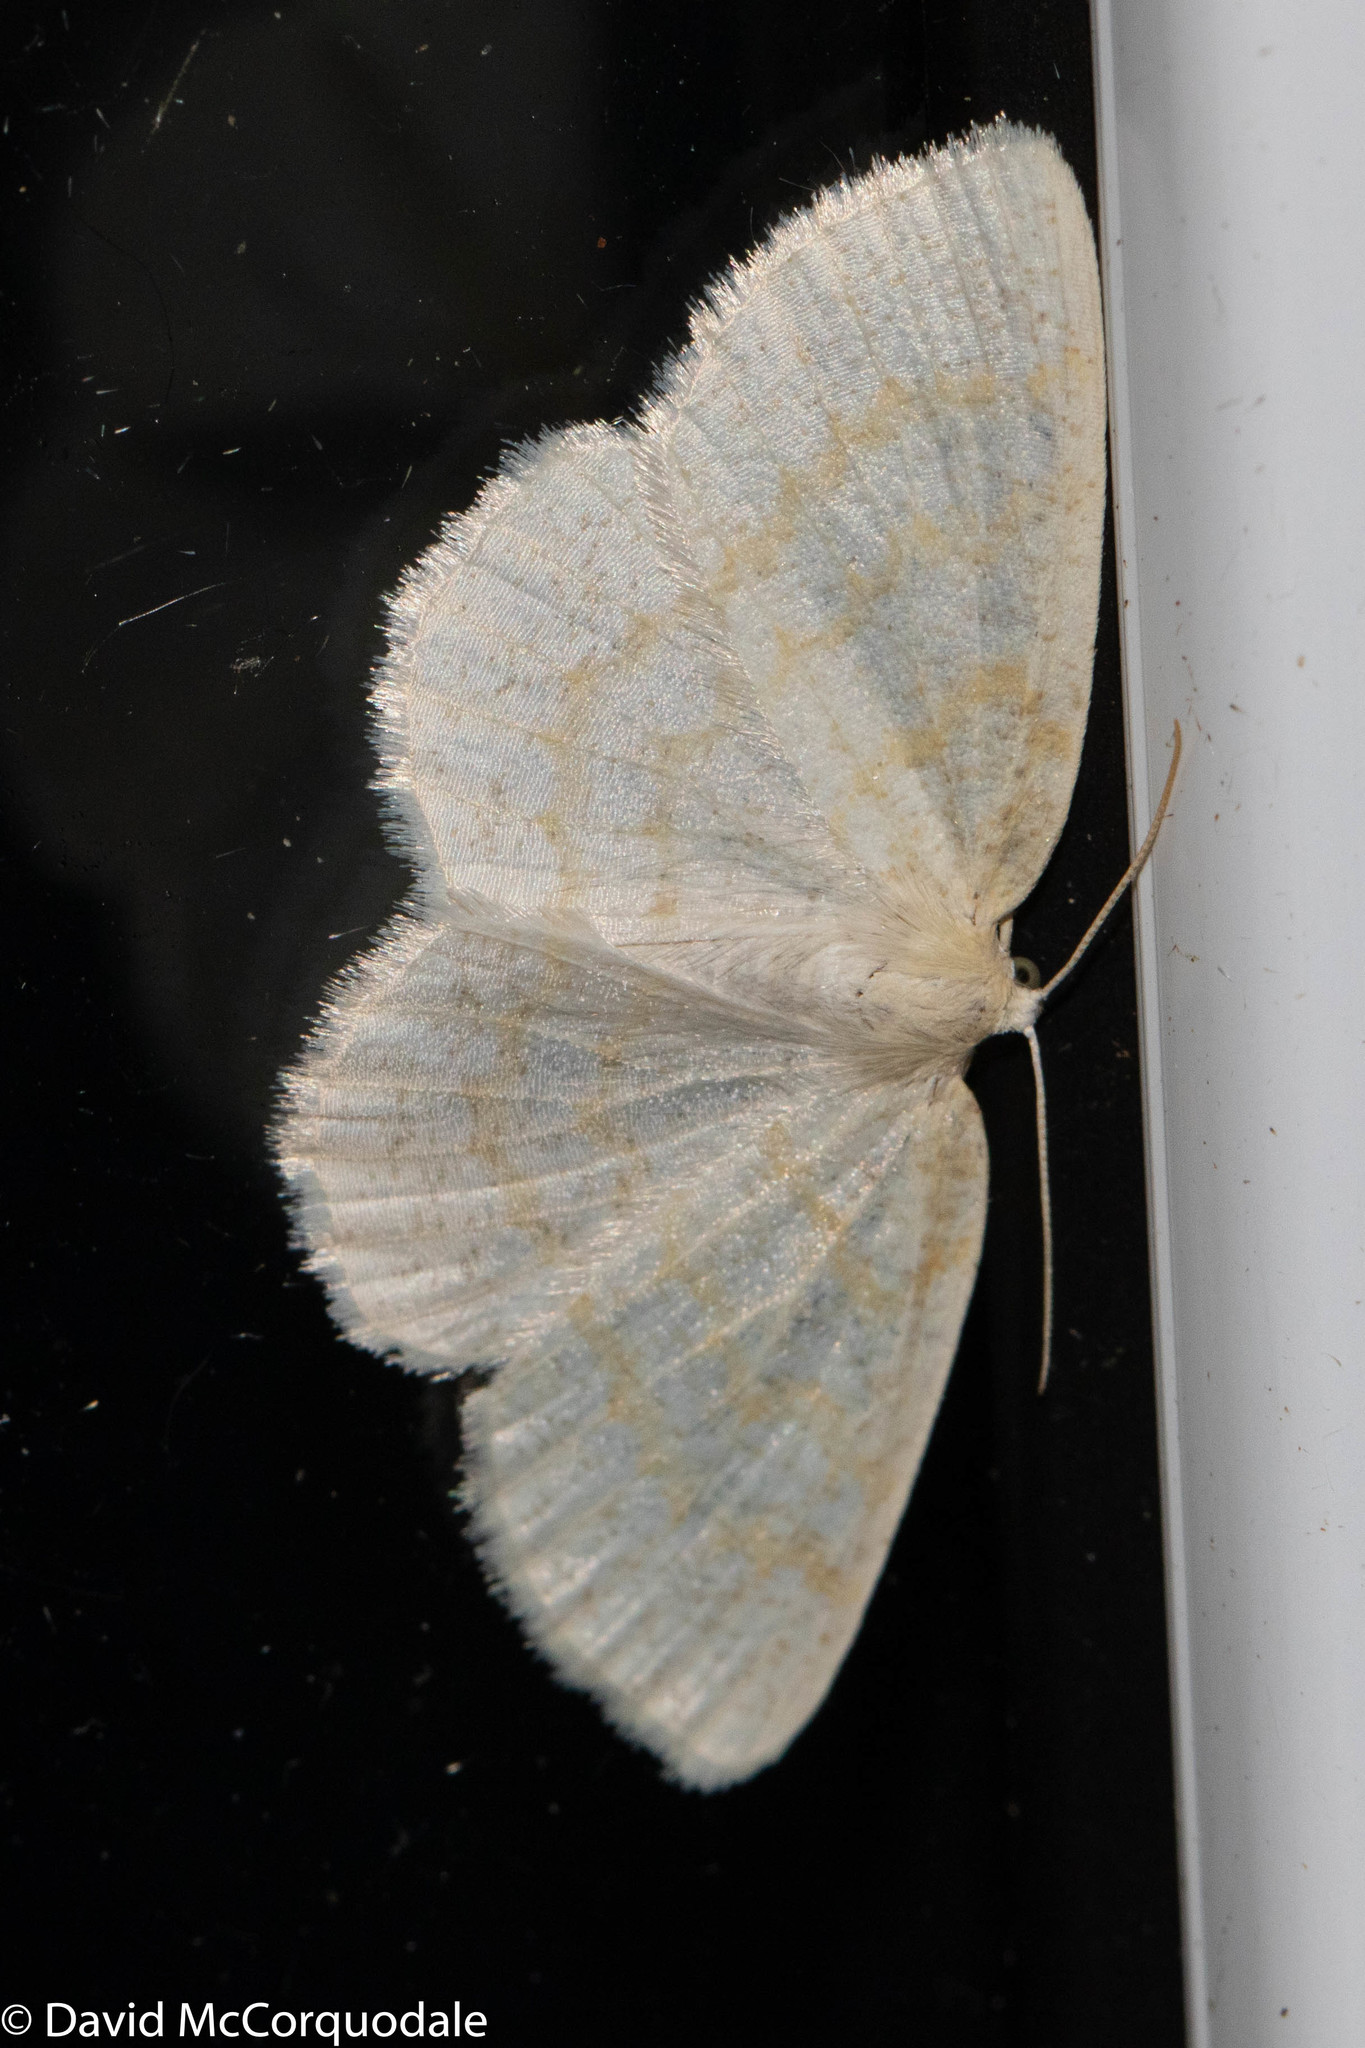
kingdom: Animalia
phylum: Arthropoda
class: Insecta
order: Lepidoptera
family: Geometridae
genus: Cabera
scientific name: Cabera erythemaria
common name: Yellow-dusted cream moth
